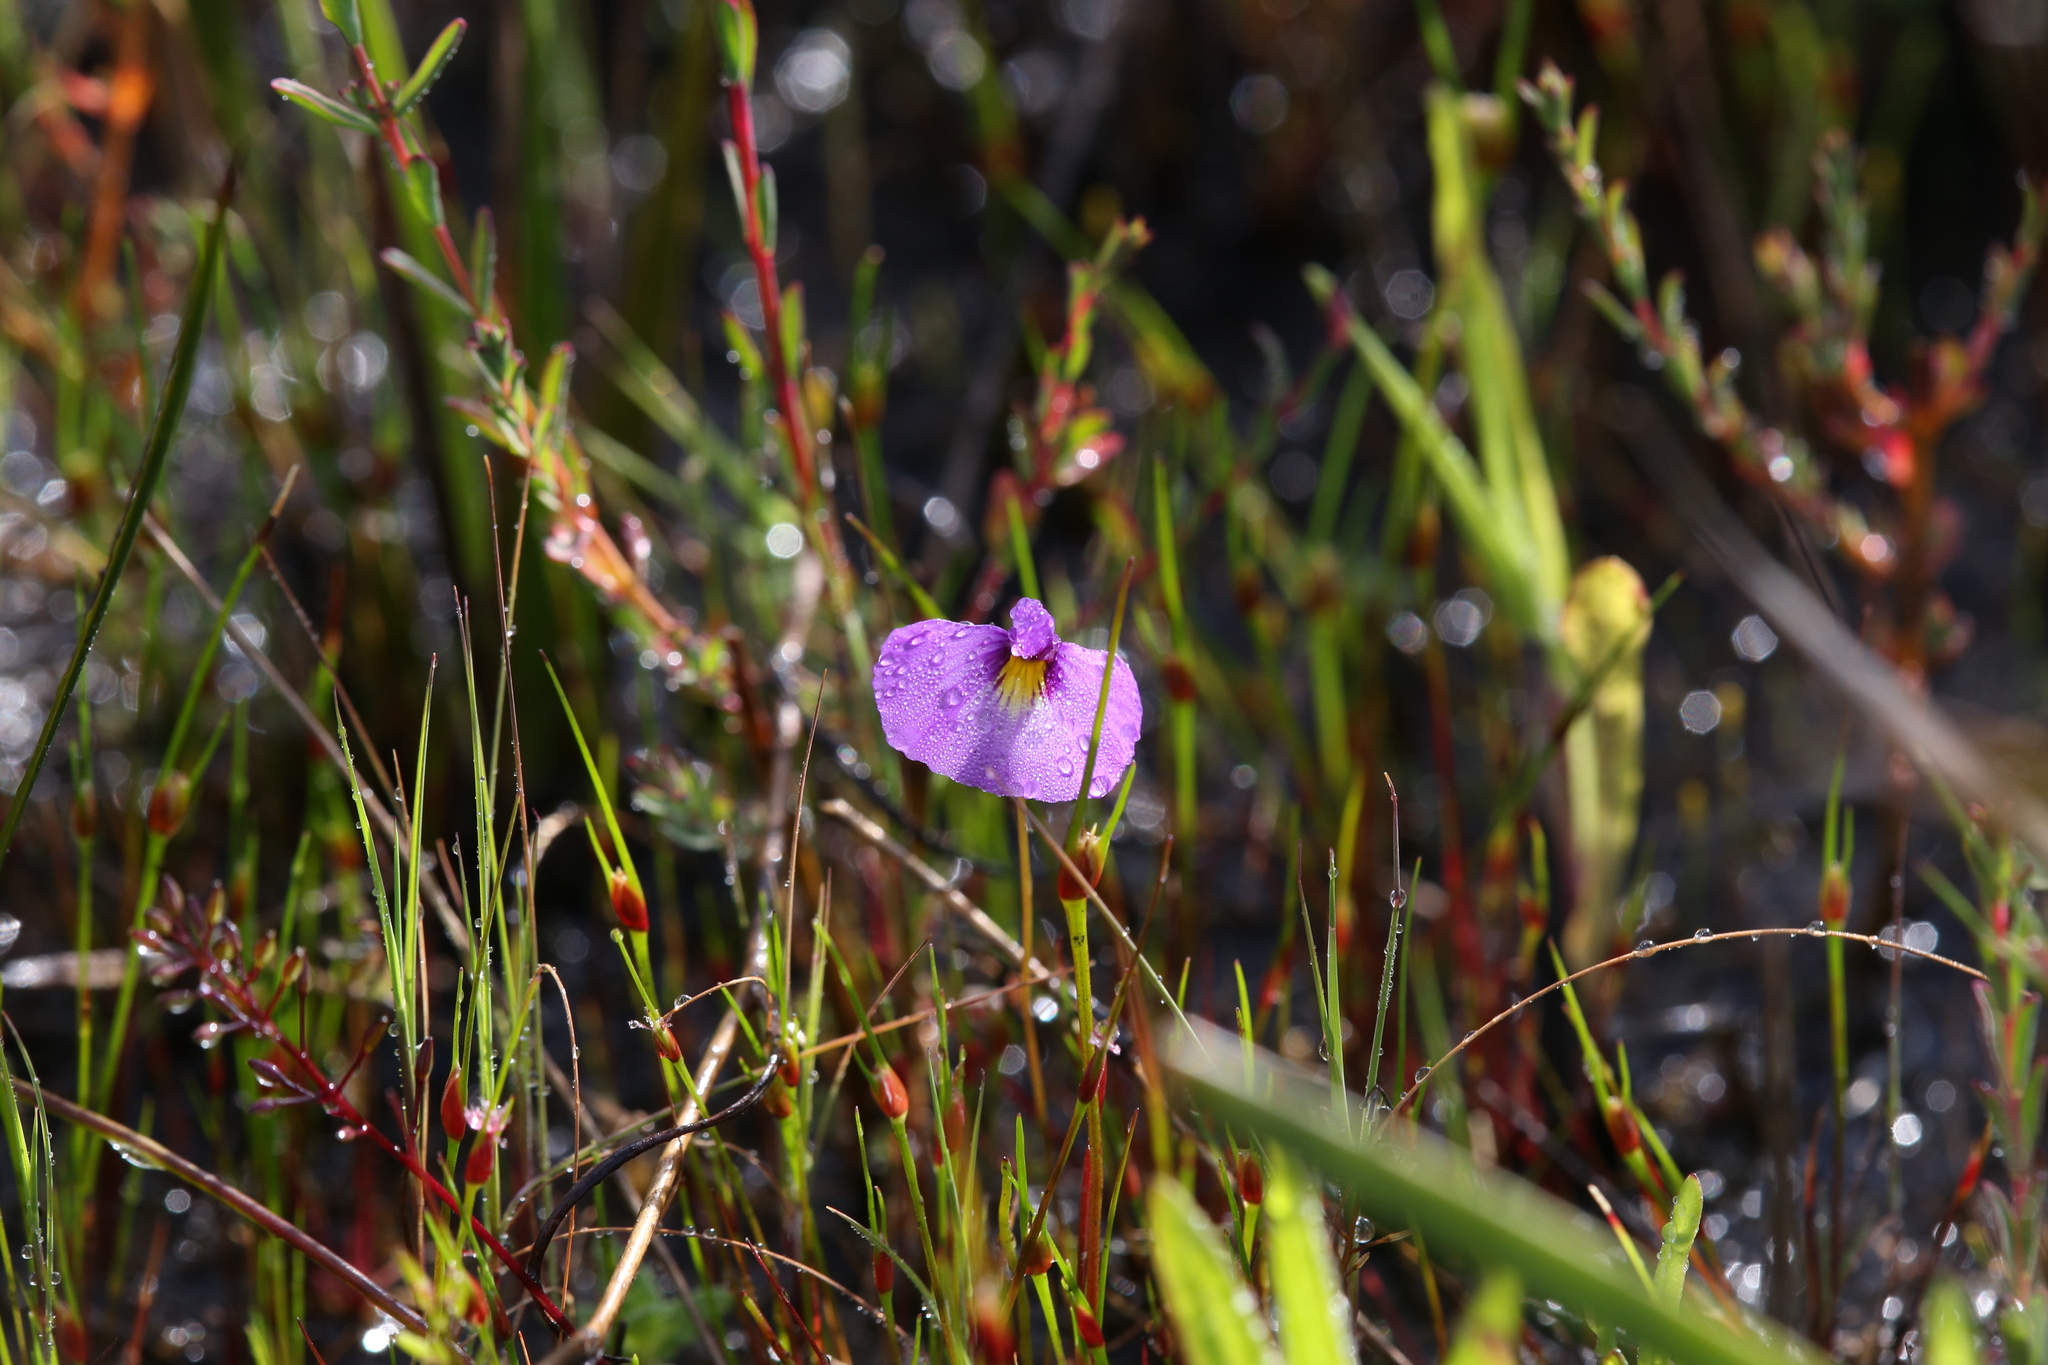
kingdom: Plantae
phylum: Tracheophyta
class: Magnoliopsida
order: Lamiales
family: Lentibulariaceae
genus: Utricularia
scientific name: Utricularia petertaylorii
